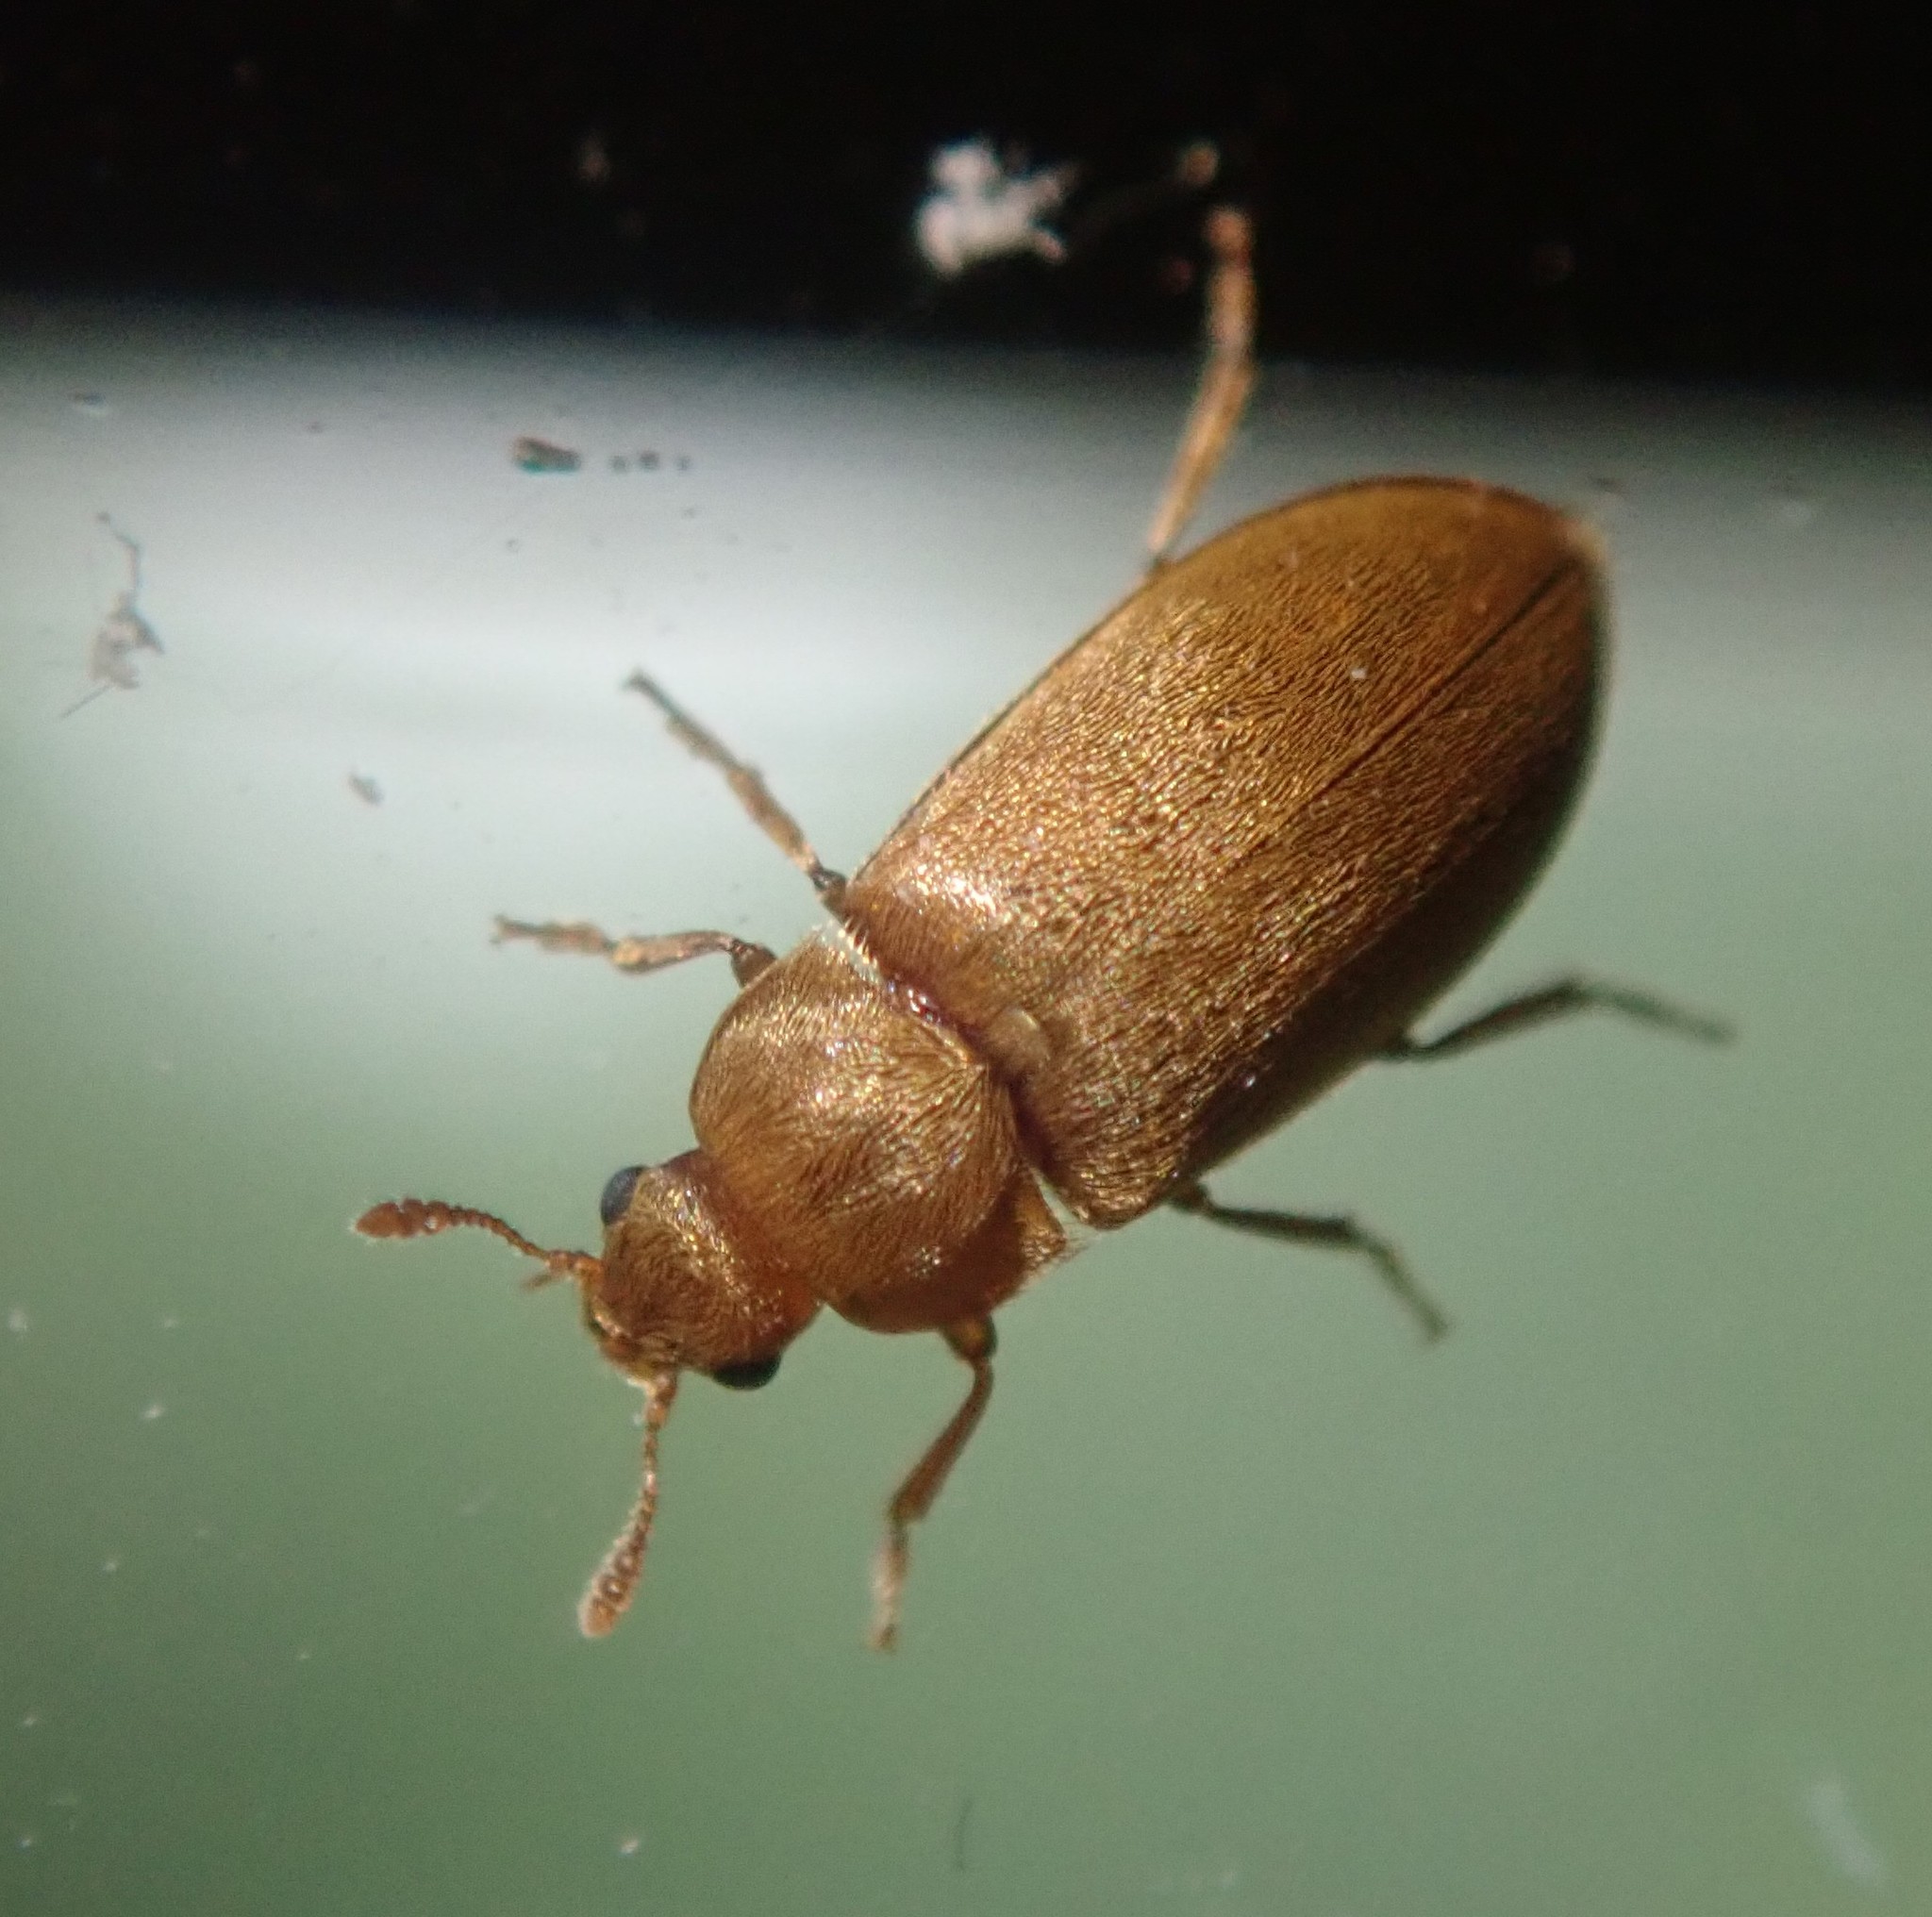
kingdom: Animalia
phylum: Arthropoda
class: Insecta
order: Coleoptera
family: Byturidae
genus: Byturus
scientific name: Byturus tomentosus
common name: Beetle
